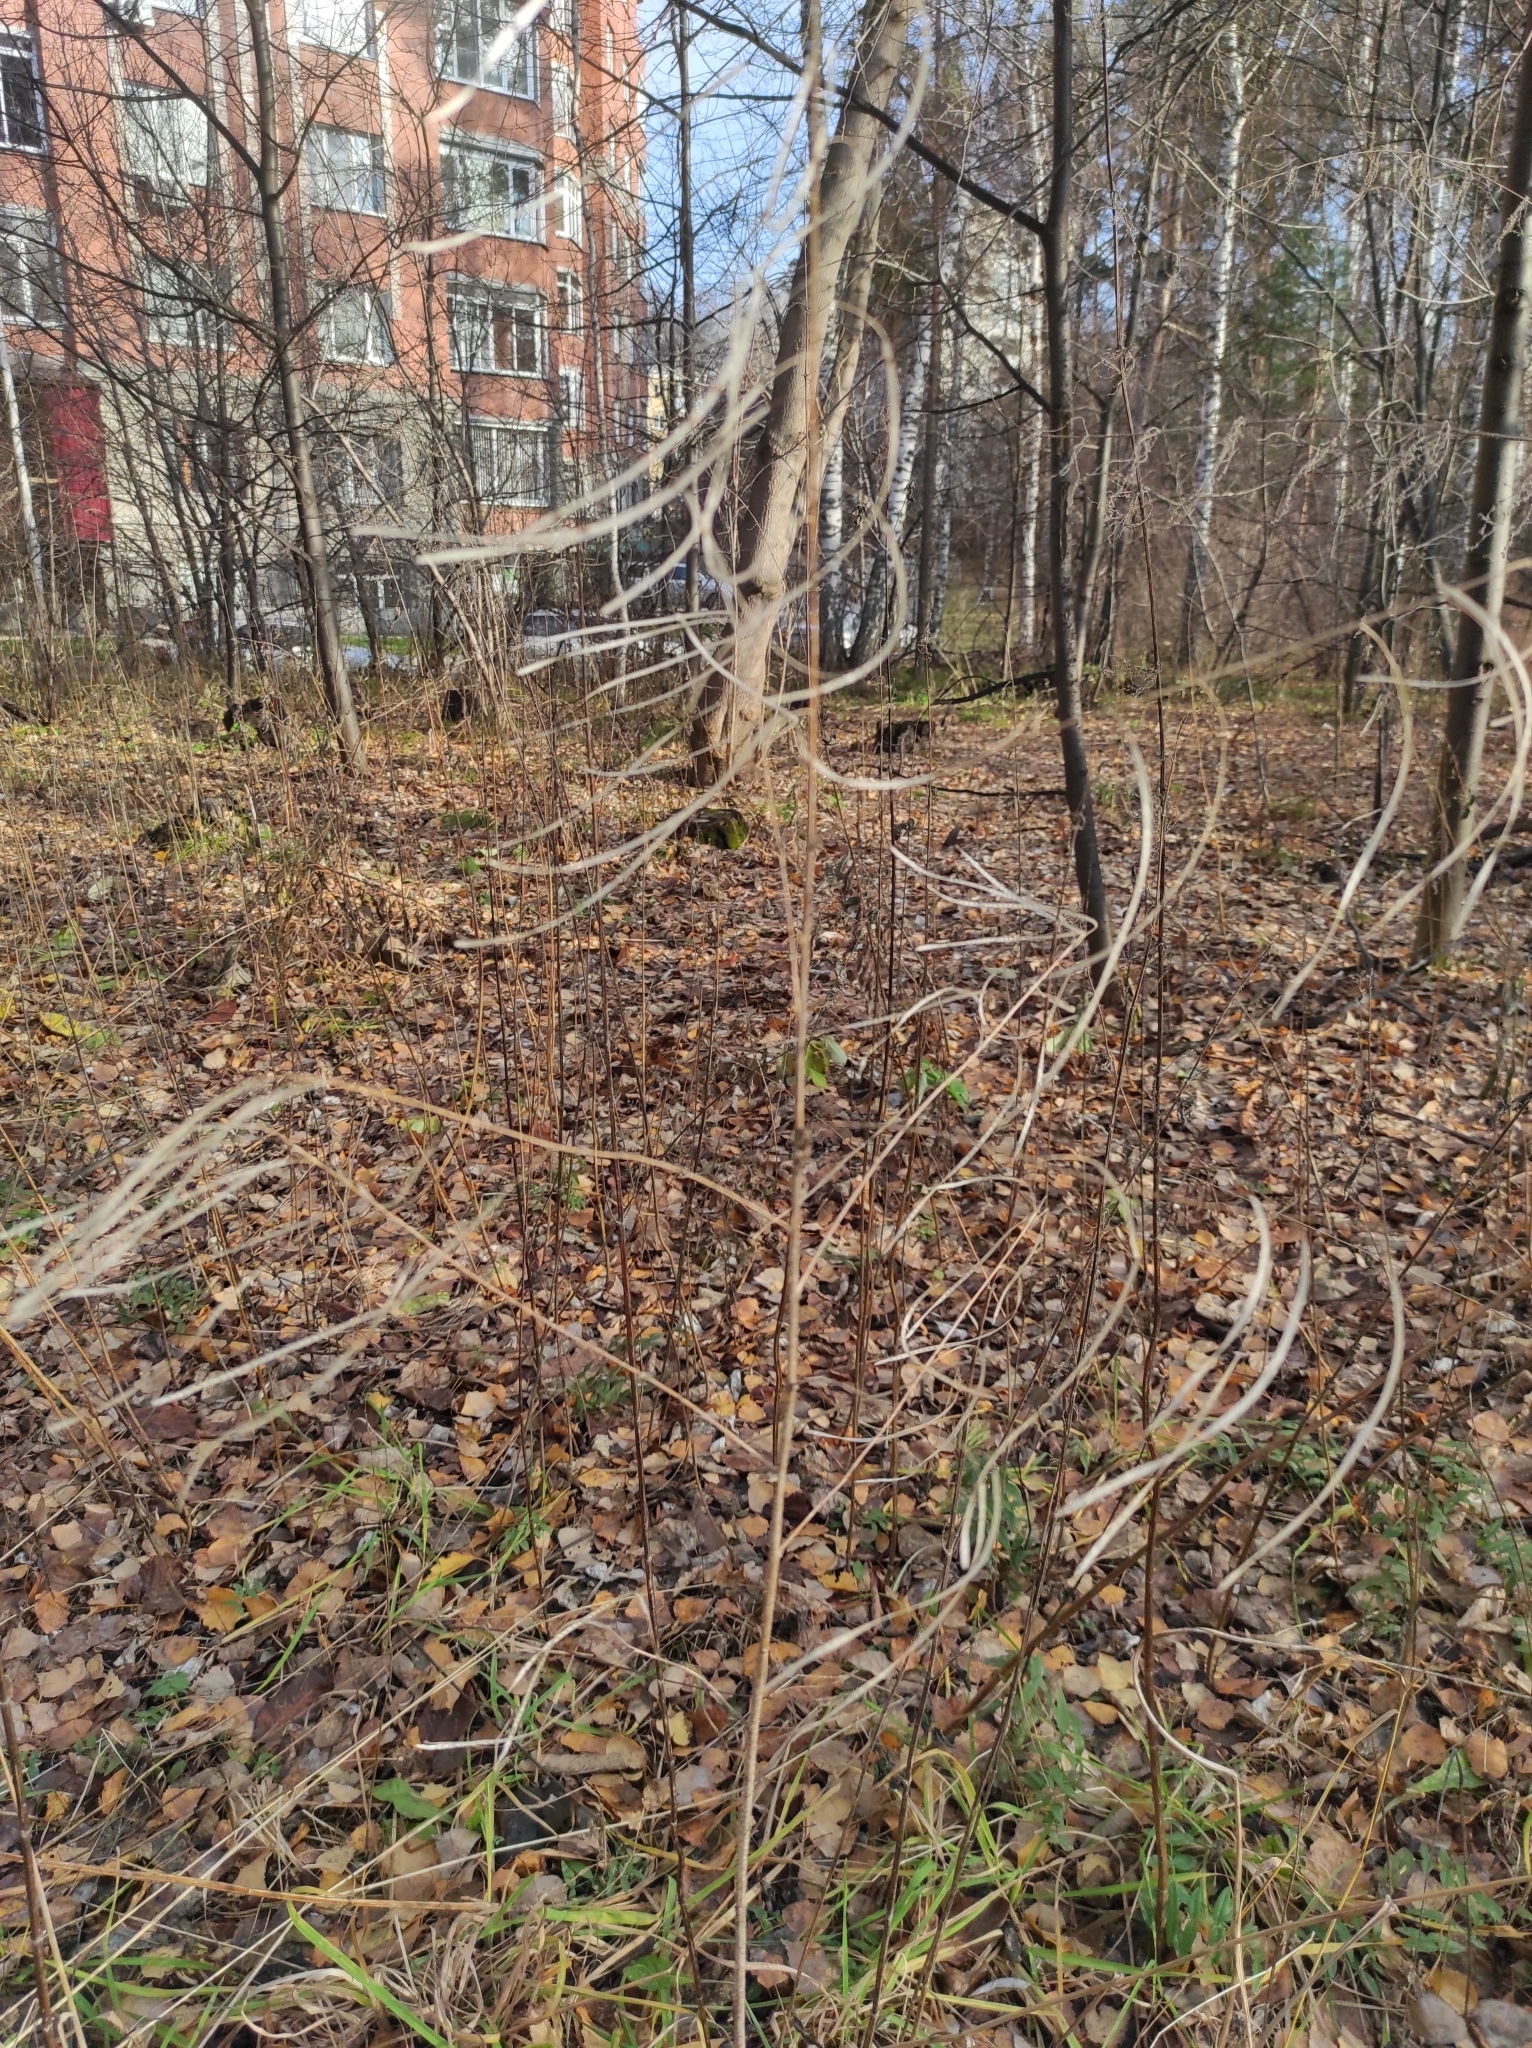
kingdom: Plantae
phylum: Tracheophyta
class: Magnoliopsida
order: Brassicales
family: Brassicaceae
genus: Catolobus
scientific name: Catolobus pendulus
